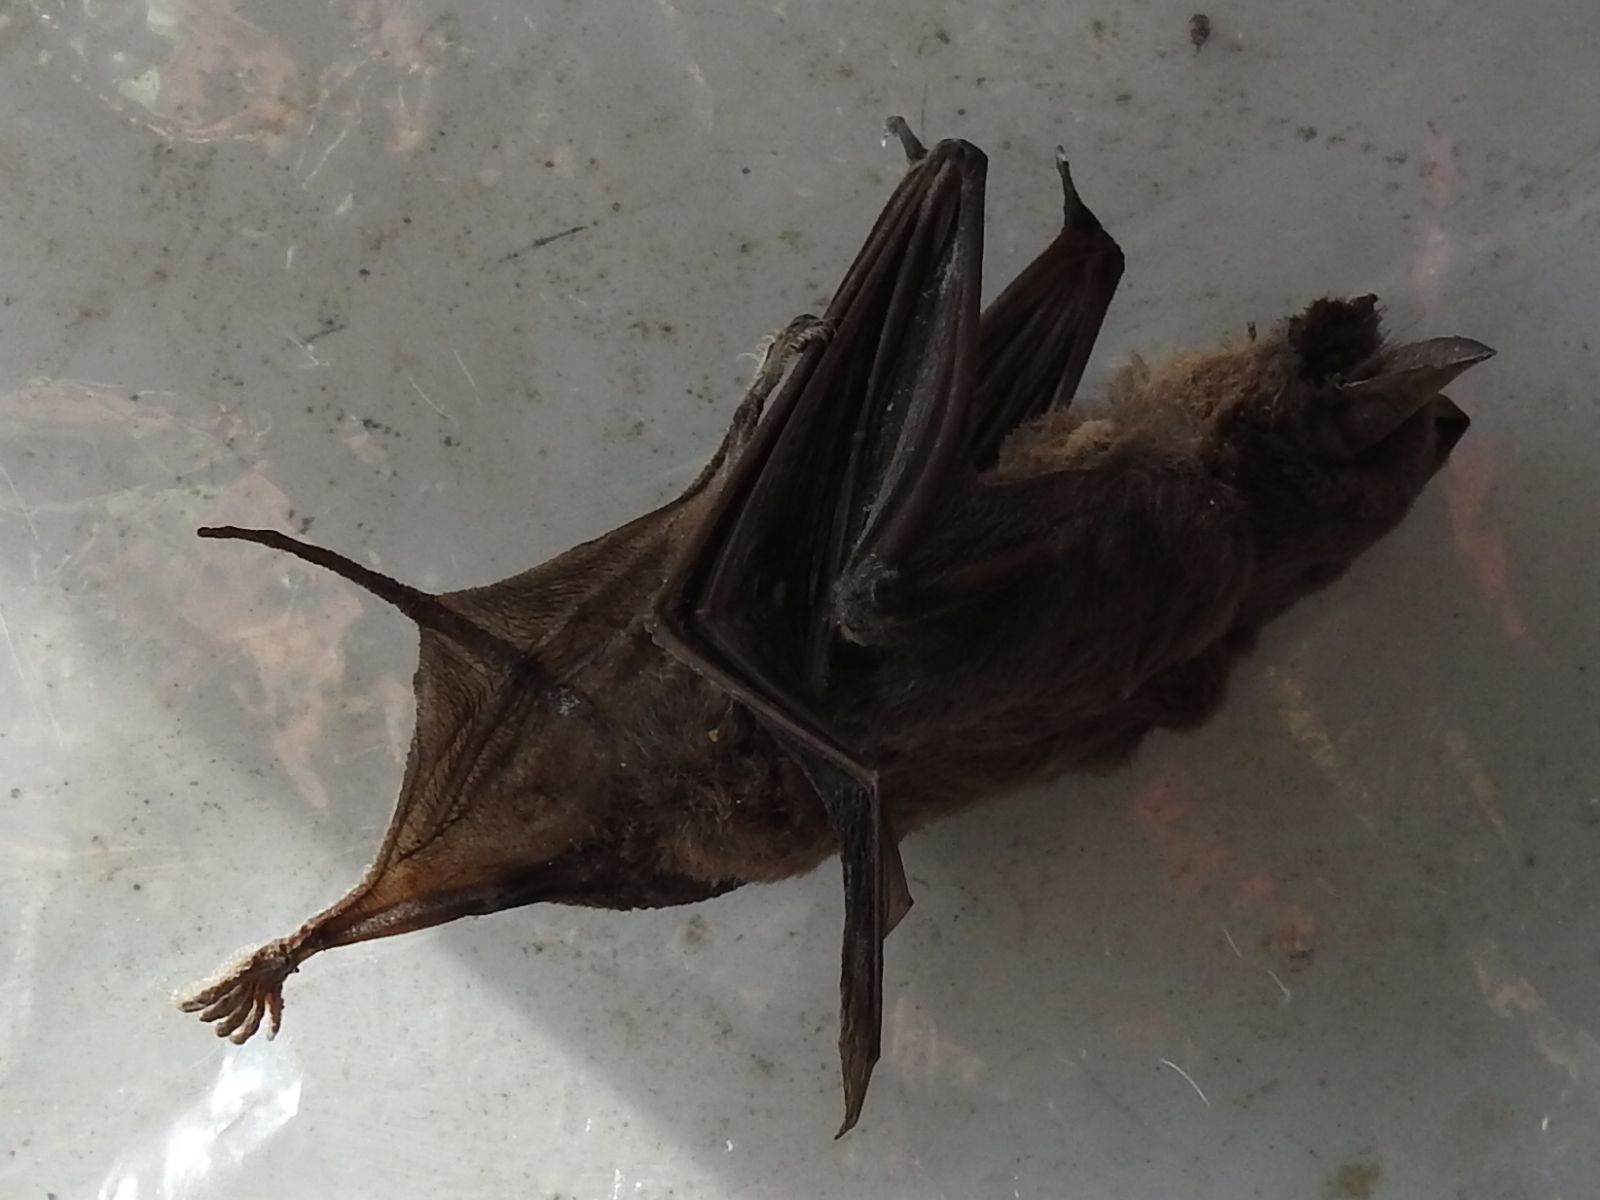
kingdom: Animalia
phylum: Chordata
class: Mammalia
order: Chiroptera
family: Molossidae
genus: Tadarida
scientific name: Tadarida brasiliensis
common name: Mexican free-tailed bat
